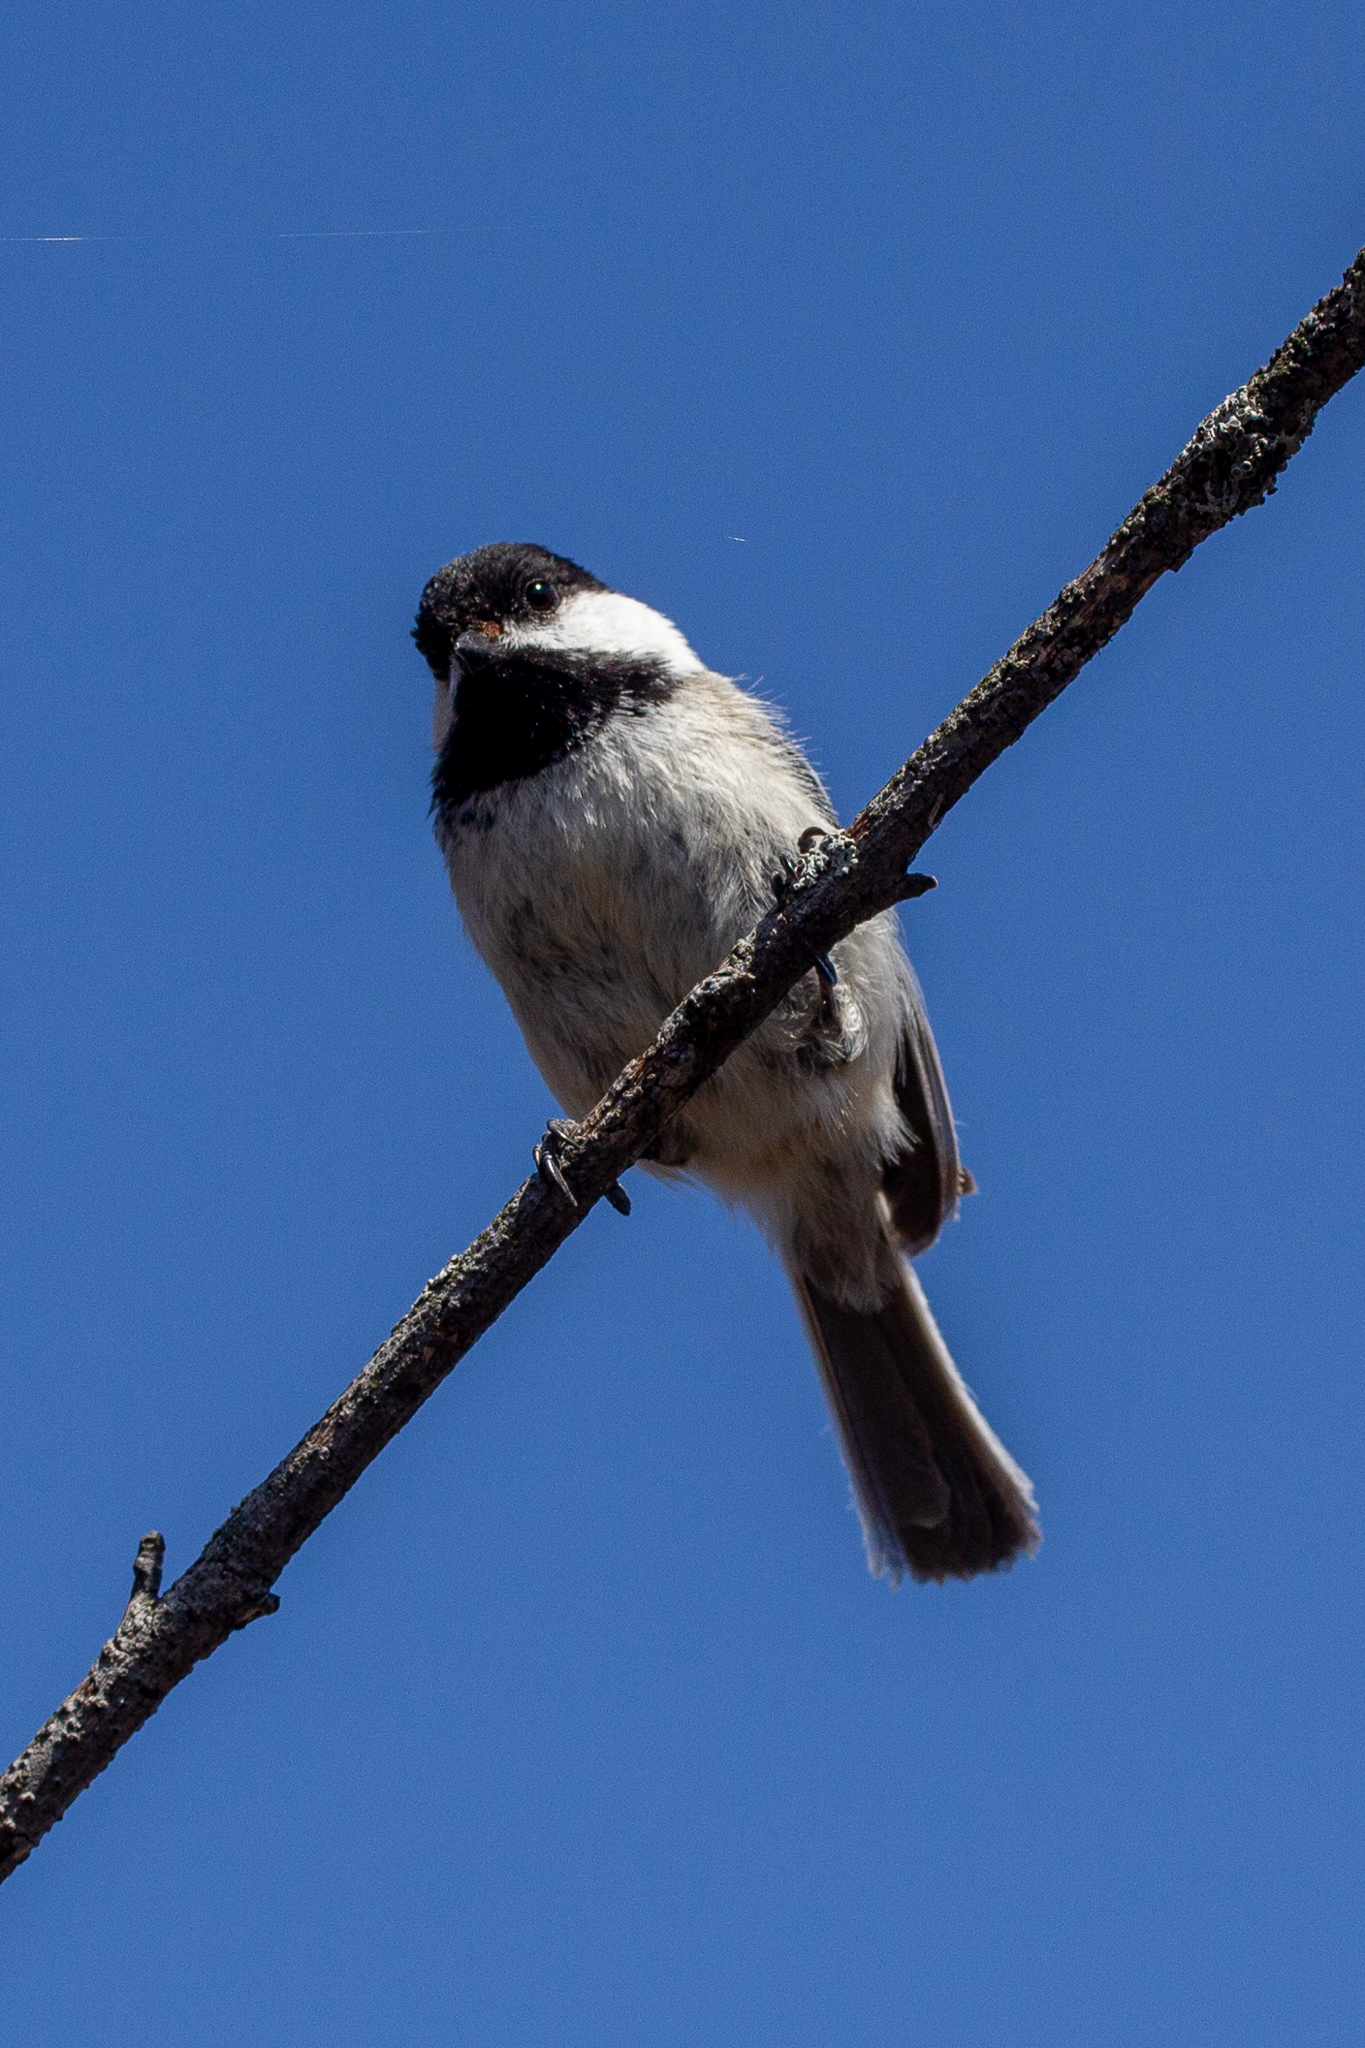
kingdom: Animalia
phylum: Chordata
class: Aves
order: Passeriformes
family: Paridae
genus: Poecile
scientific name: Poecile atricapillus
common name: Black-capped chickadee
